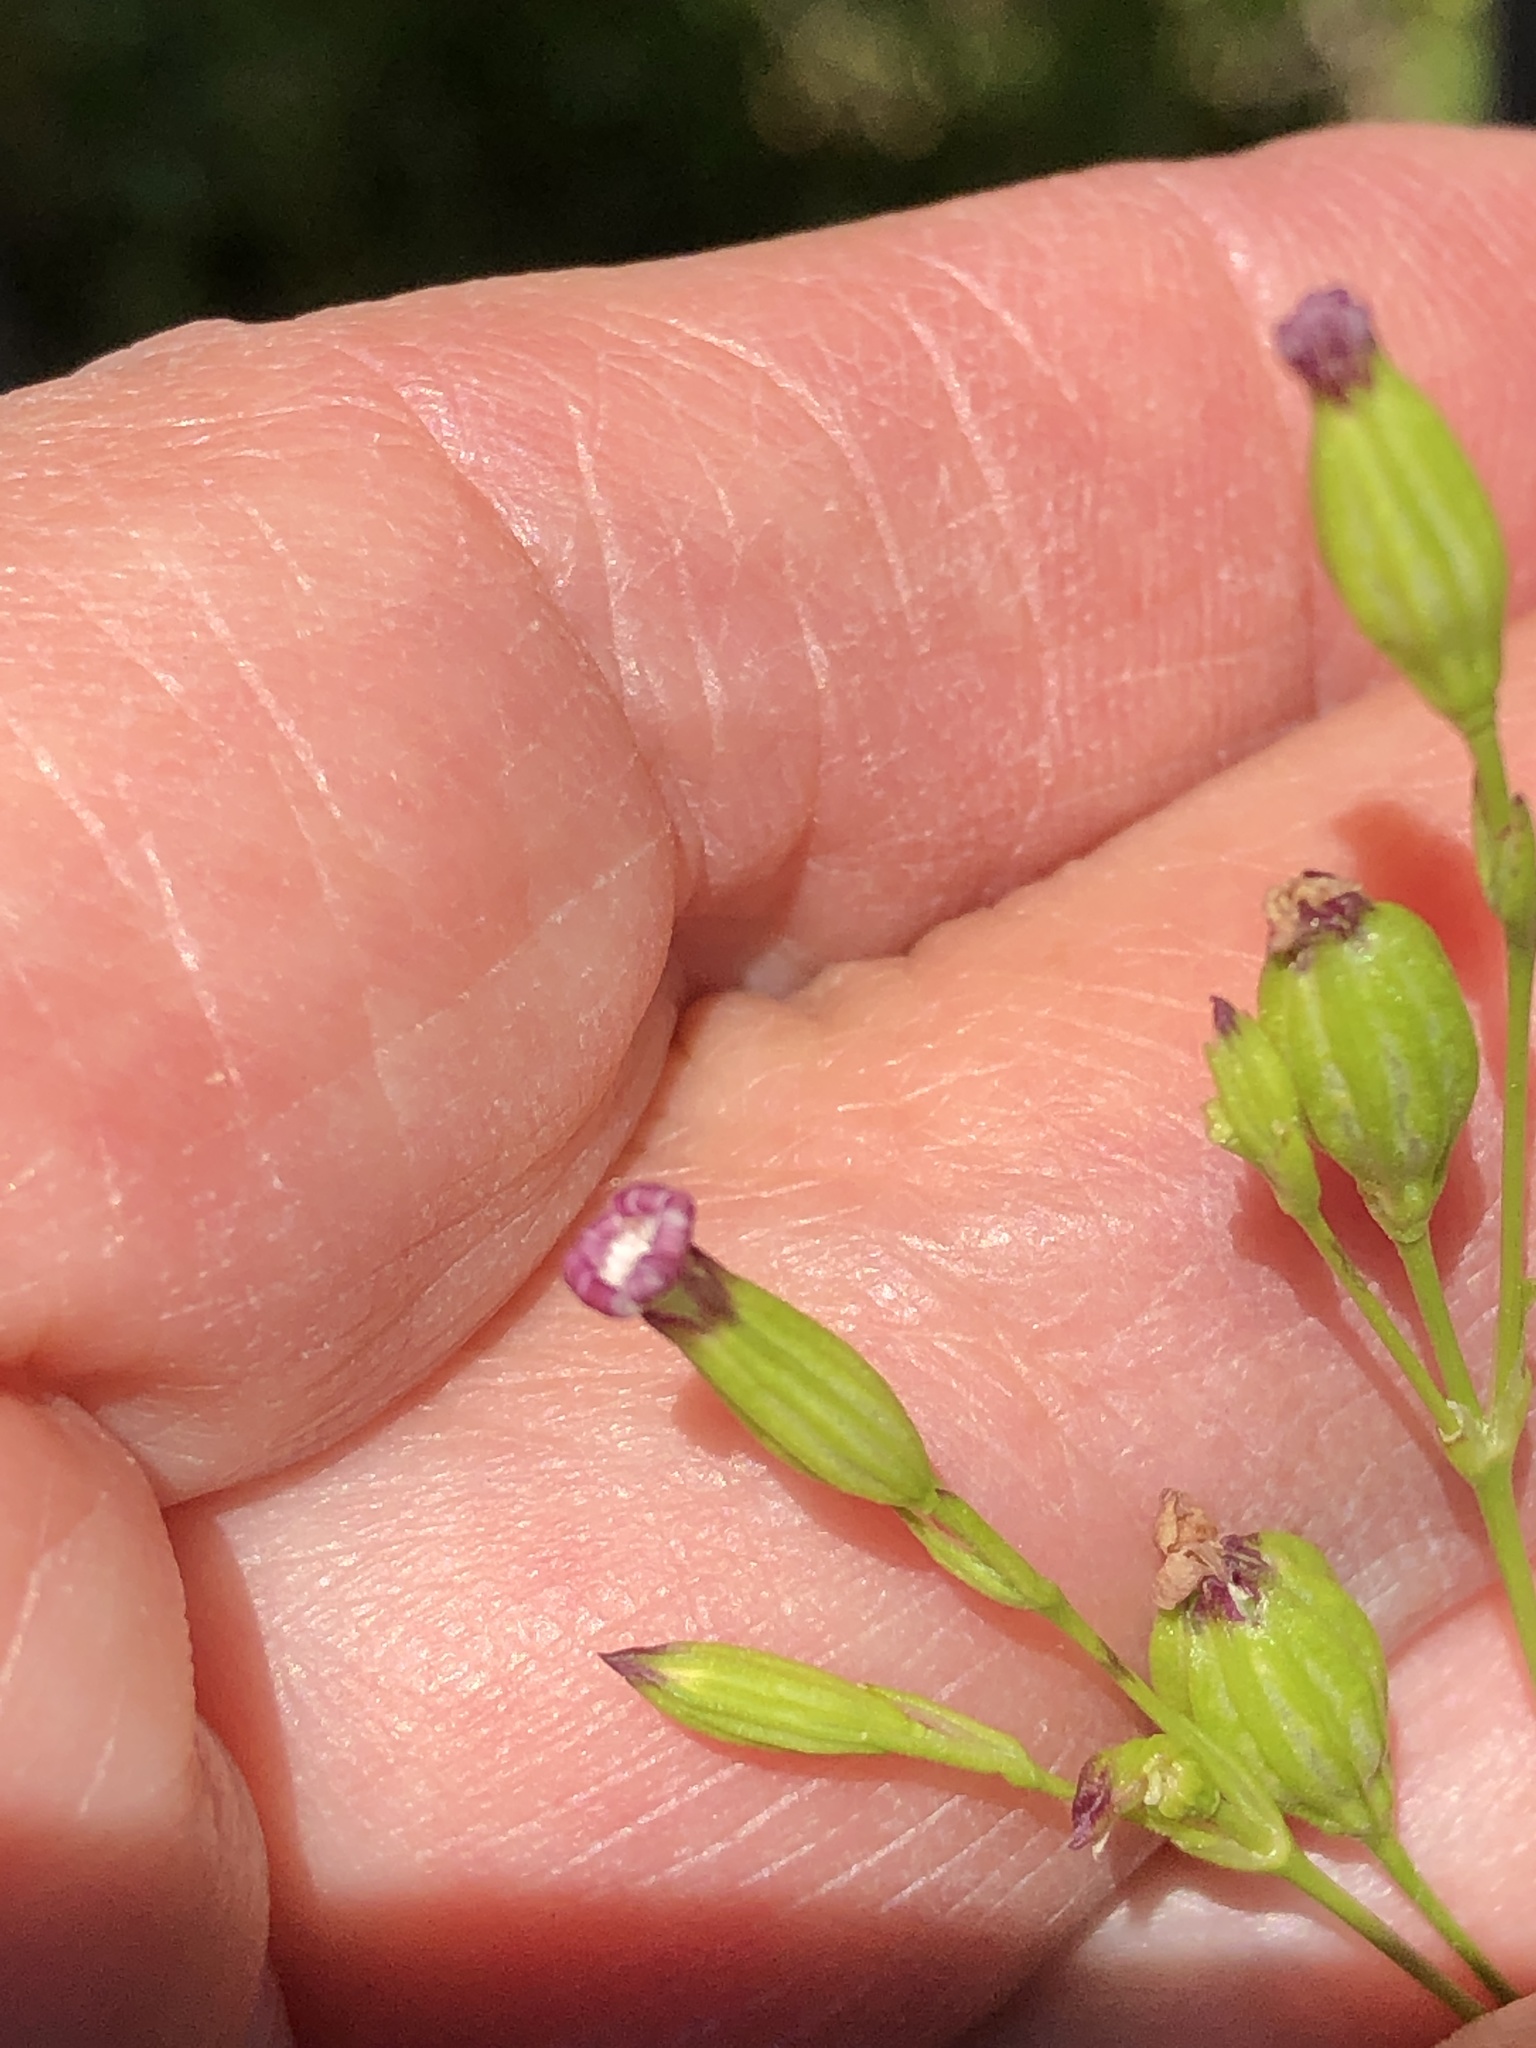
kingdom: Plantae
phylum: Tracheophyta
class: Magnoliopsida
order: Caryophyllales
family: Caryophyllaceae
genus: Silene
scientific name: Silene antirrhina
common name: Sleepy catchfly
